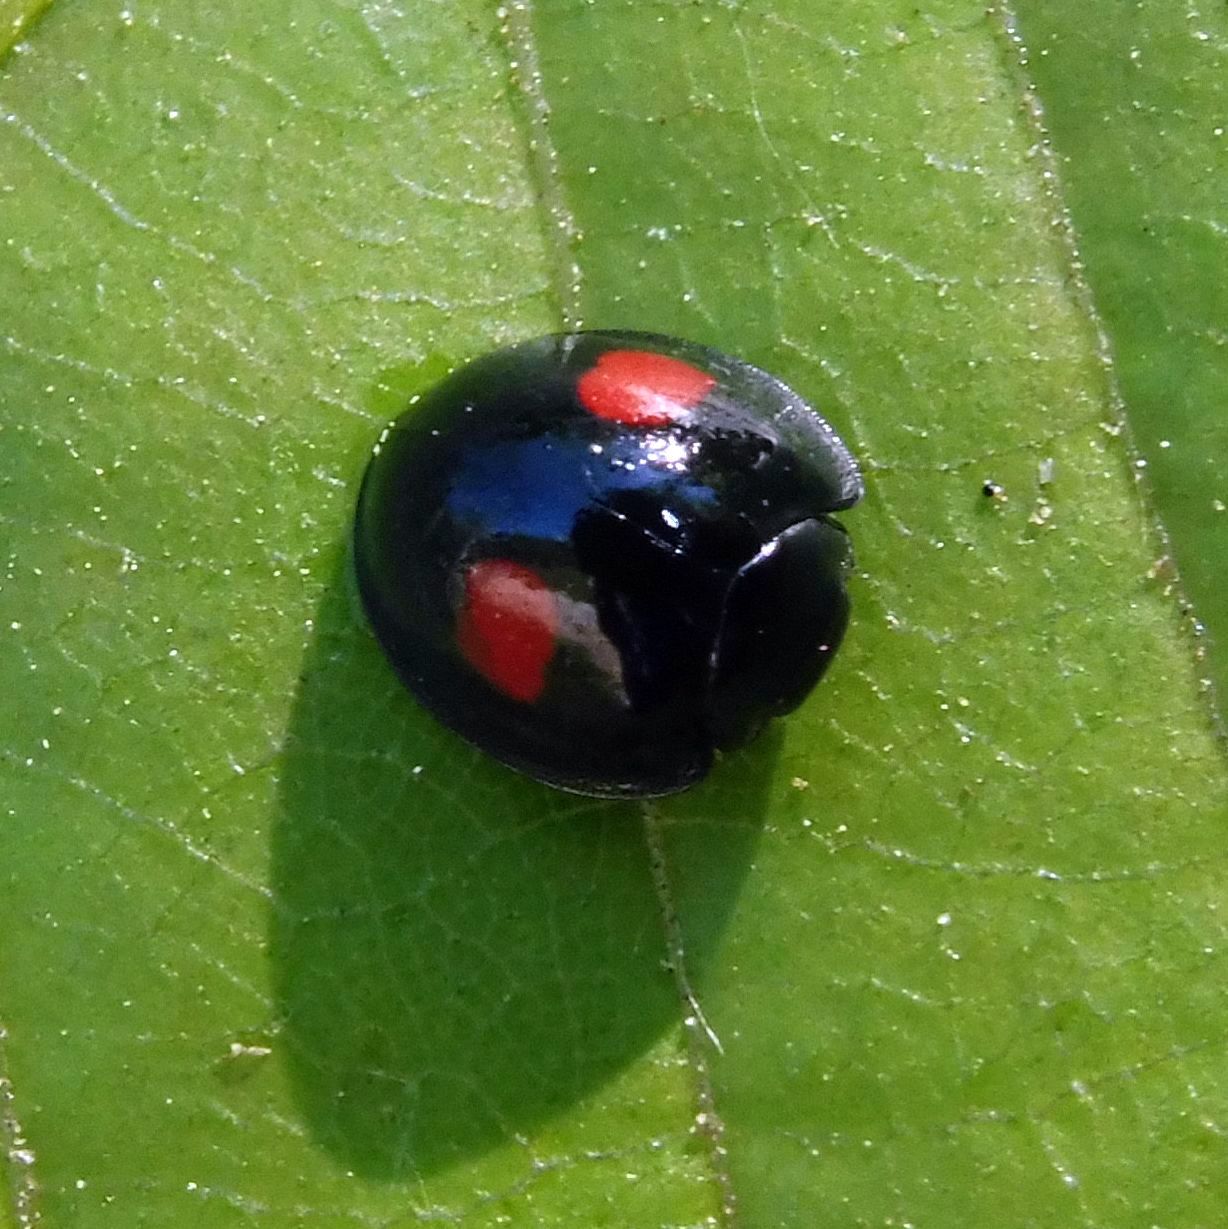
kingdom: Animalia
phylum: Arthropoda
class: Insecta
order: Coleoptera
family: Coccinellidae
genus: Chilocorus
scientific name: Chilocorus renipustulatus
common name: Kidney-spot ladybird
